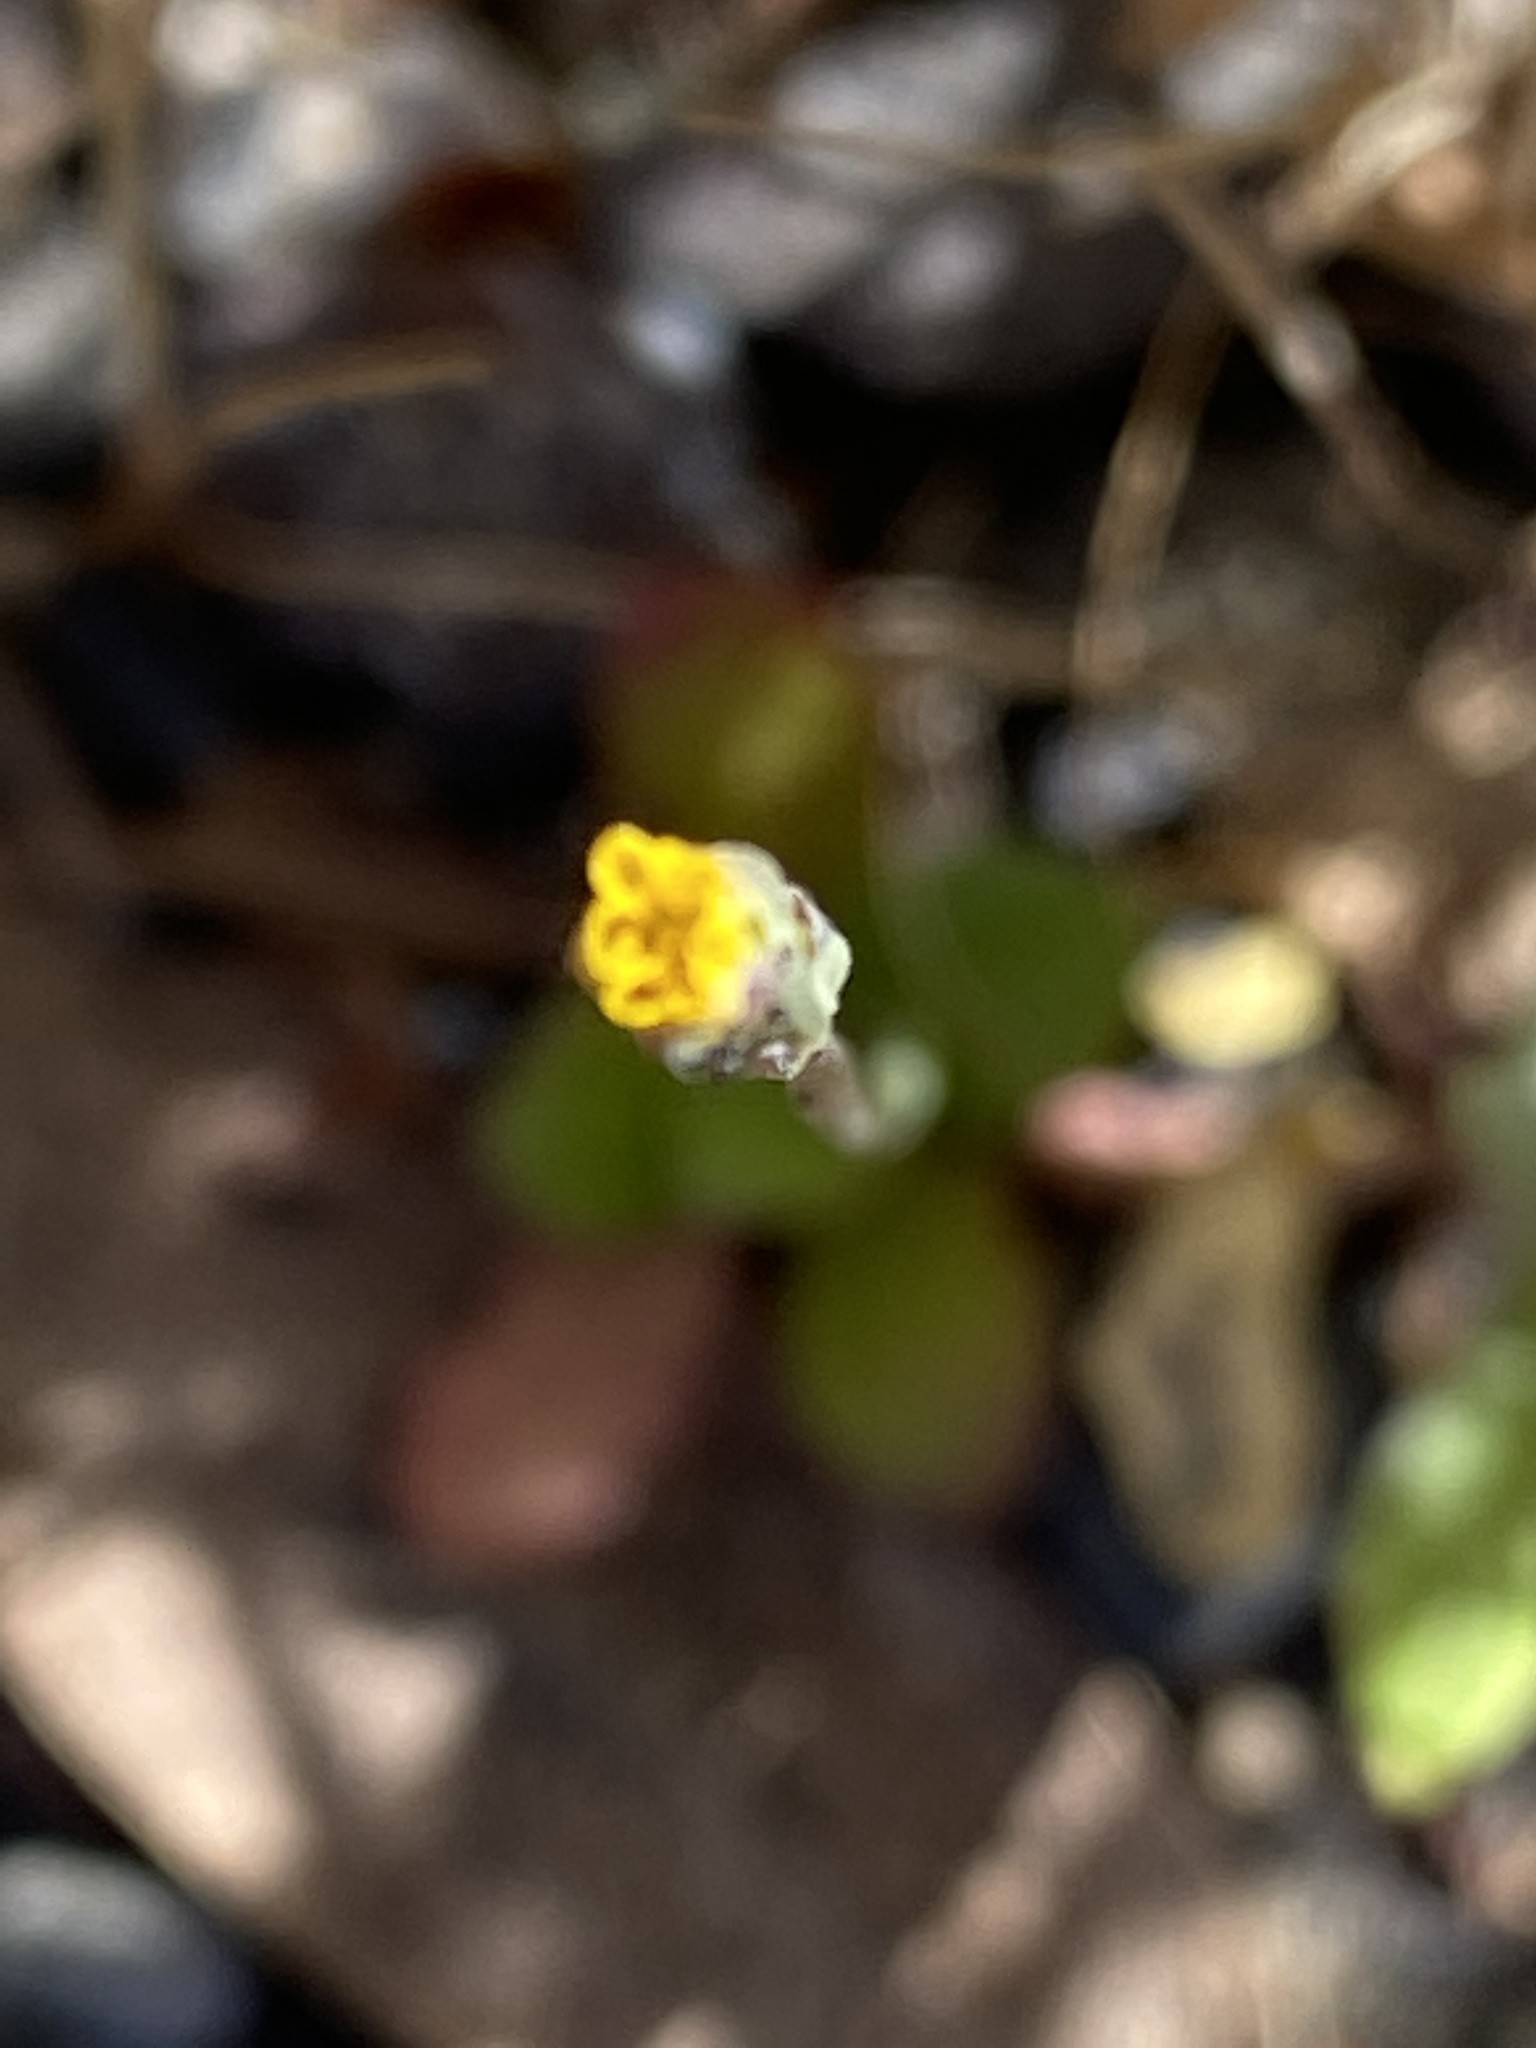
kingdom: Plantae
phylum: Tracheophyta
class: Magnoliopsida
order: Asterales
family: Asteraceae
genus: Hypochaeris
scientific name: Hypochaeris glabra
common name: Smooth catsear
